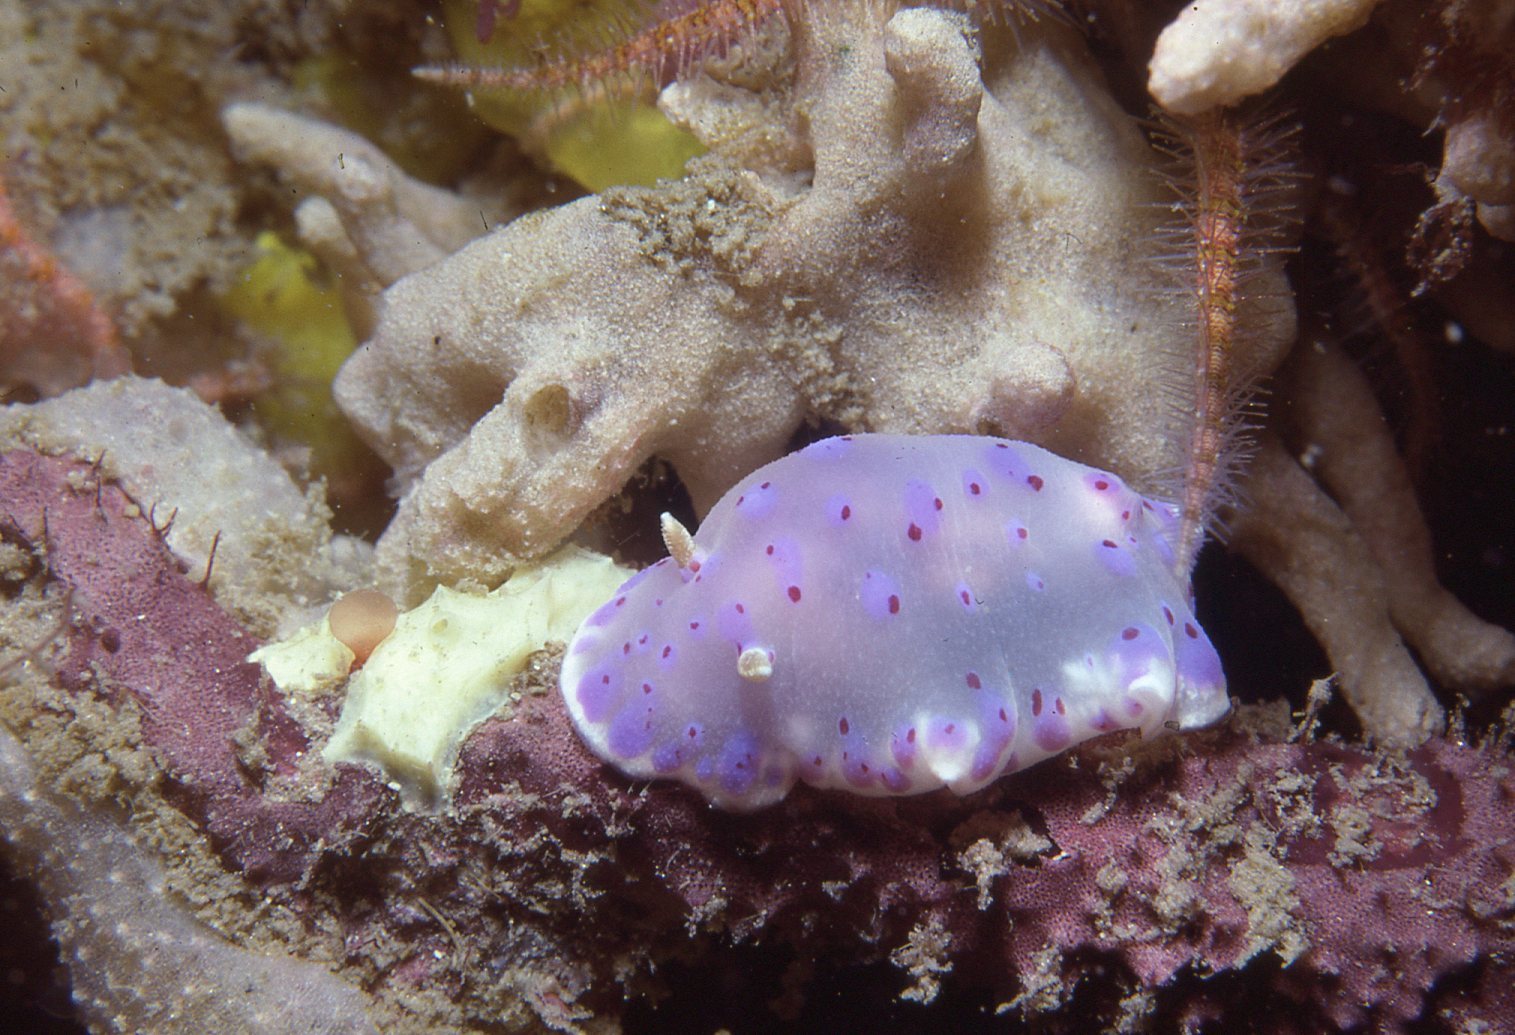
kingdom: Animalia
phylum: Mollusca
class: Gastropoda
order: Nudibranchia
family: Chromodorididae
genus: Goniobranchus
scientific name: Goniobranchus thompsoni
